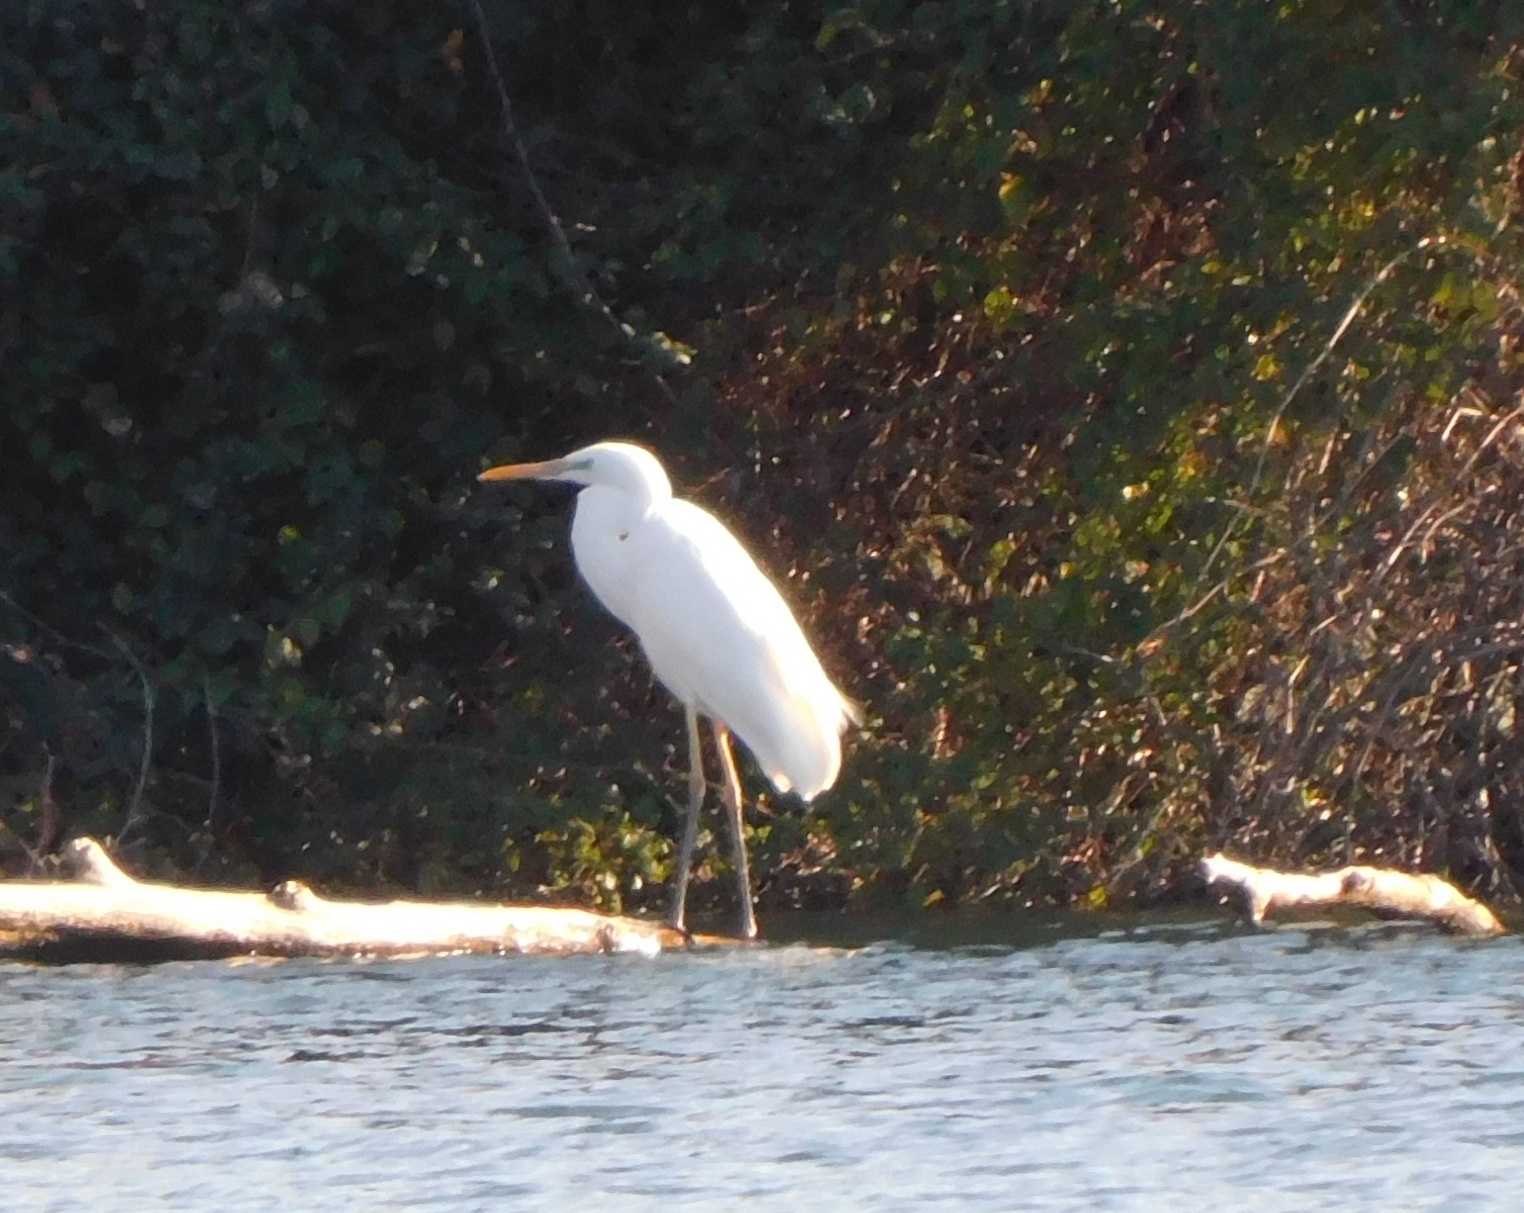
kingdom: Animalia
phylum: Chordata
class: Aves
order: Pelecaniformes
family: Ardeidae
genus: Ardea
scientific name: Ardea alba
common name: Great egret
